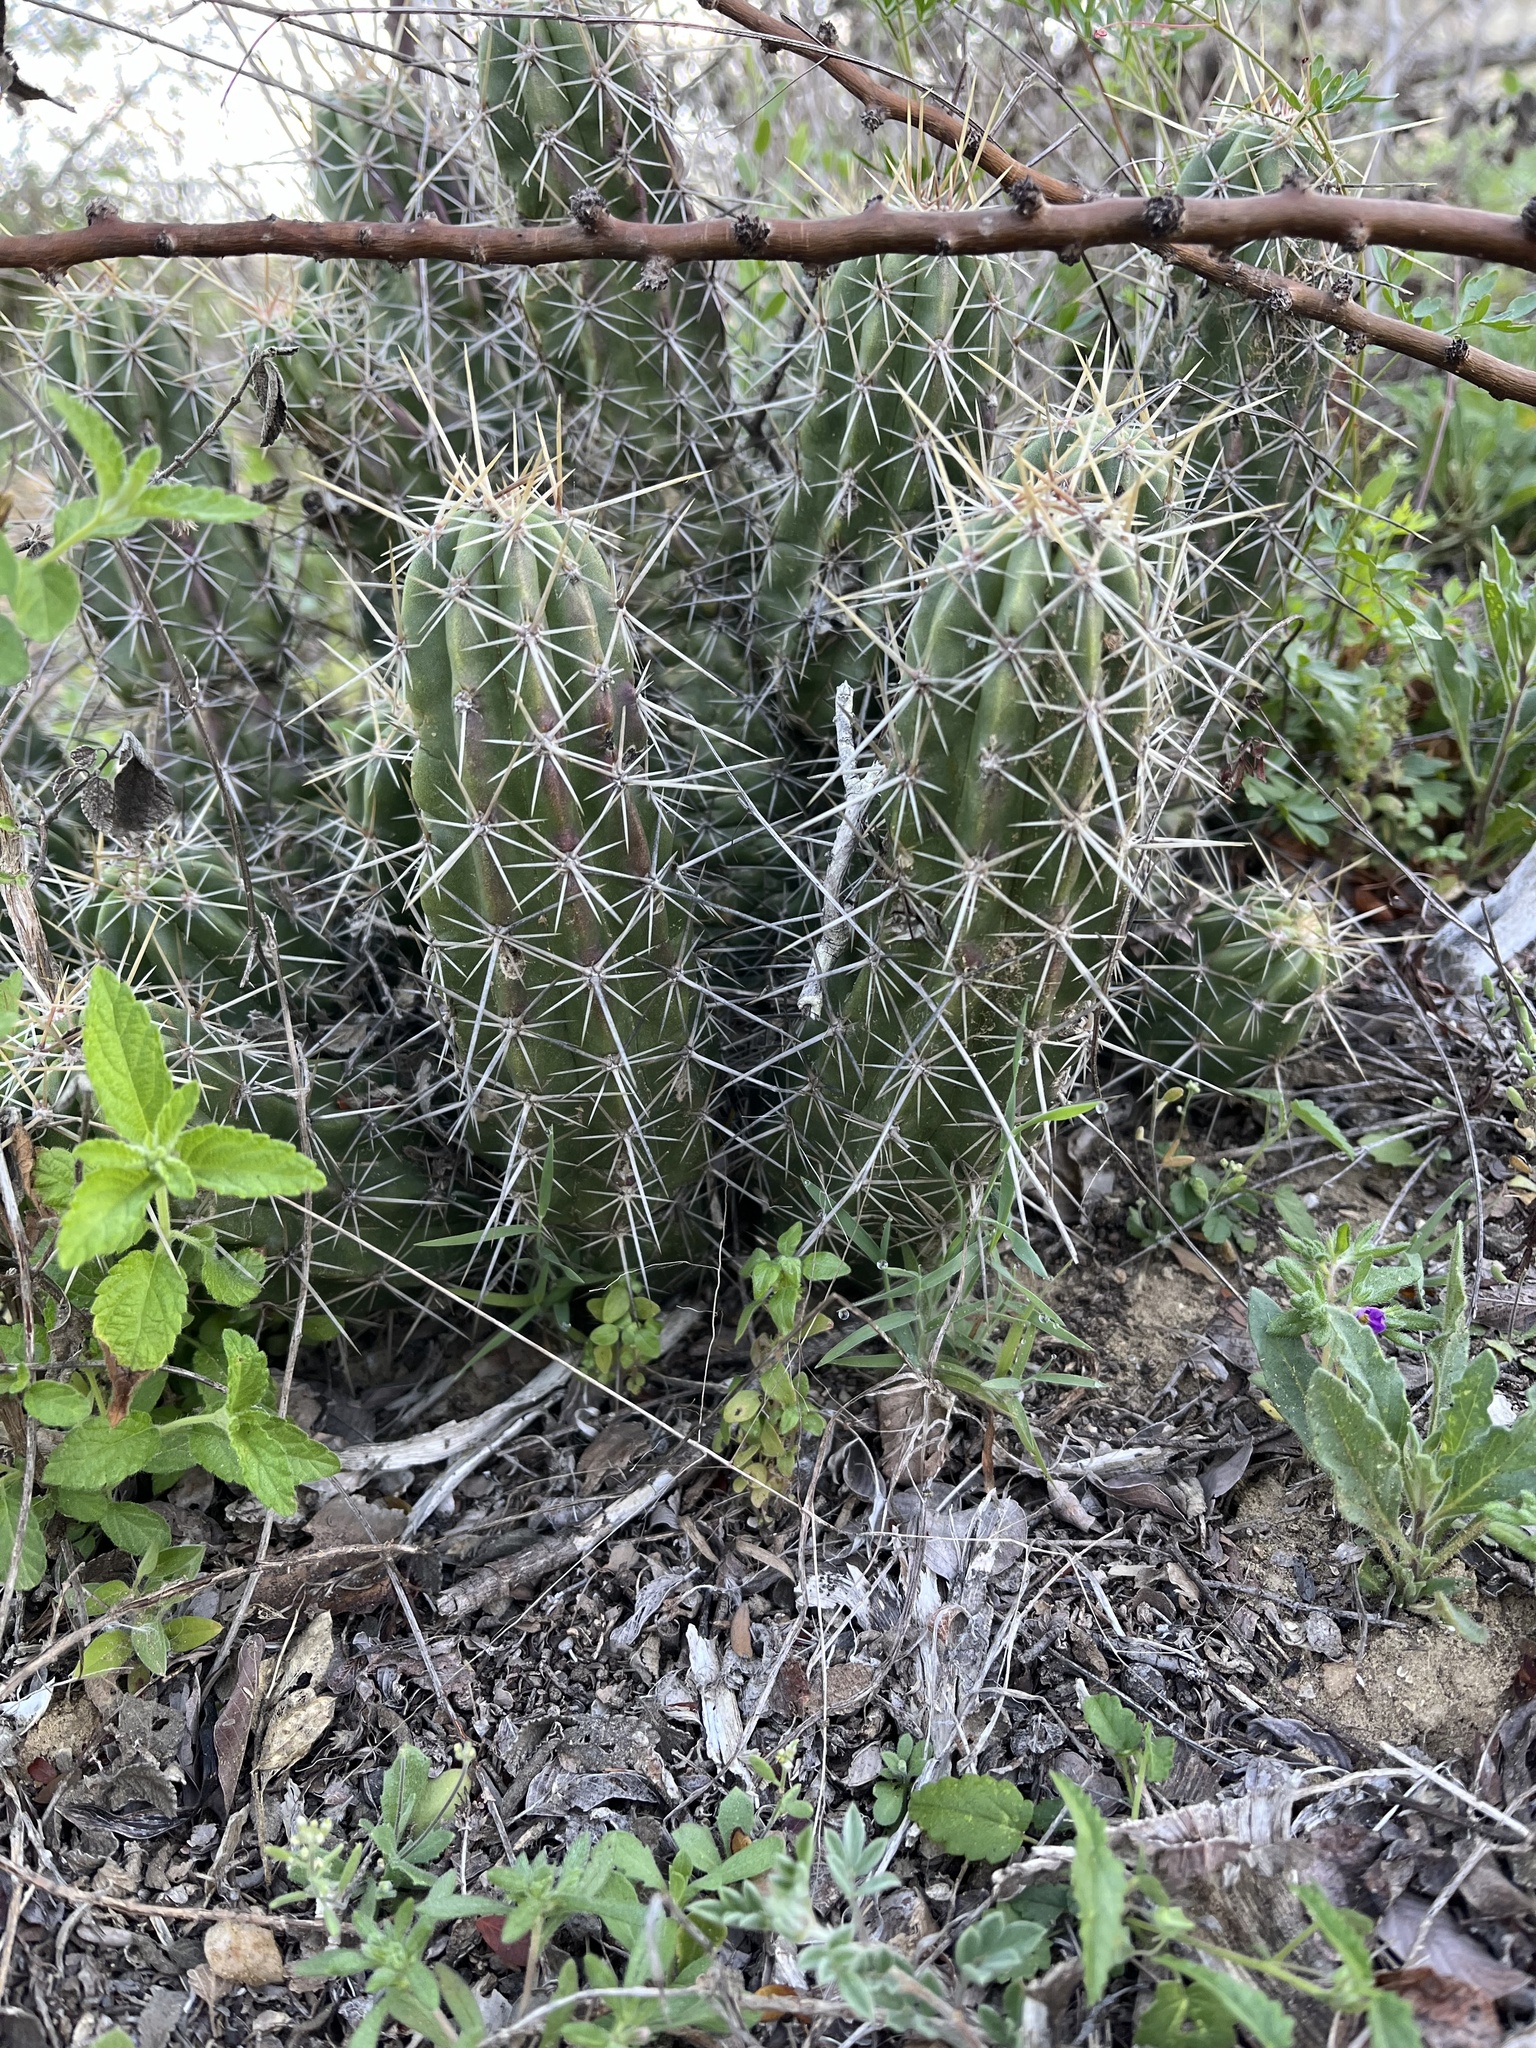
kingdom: Plantae
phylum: Tracheophyta
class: Magnoliopsida
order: Caryophyllales
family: Cactaceae
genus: Echinocereus
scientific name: Echinocereus enneacanthus
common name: Pitaya
